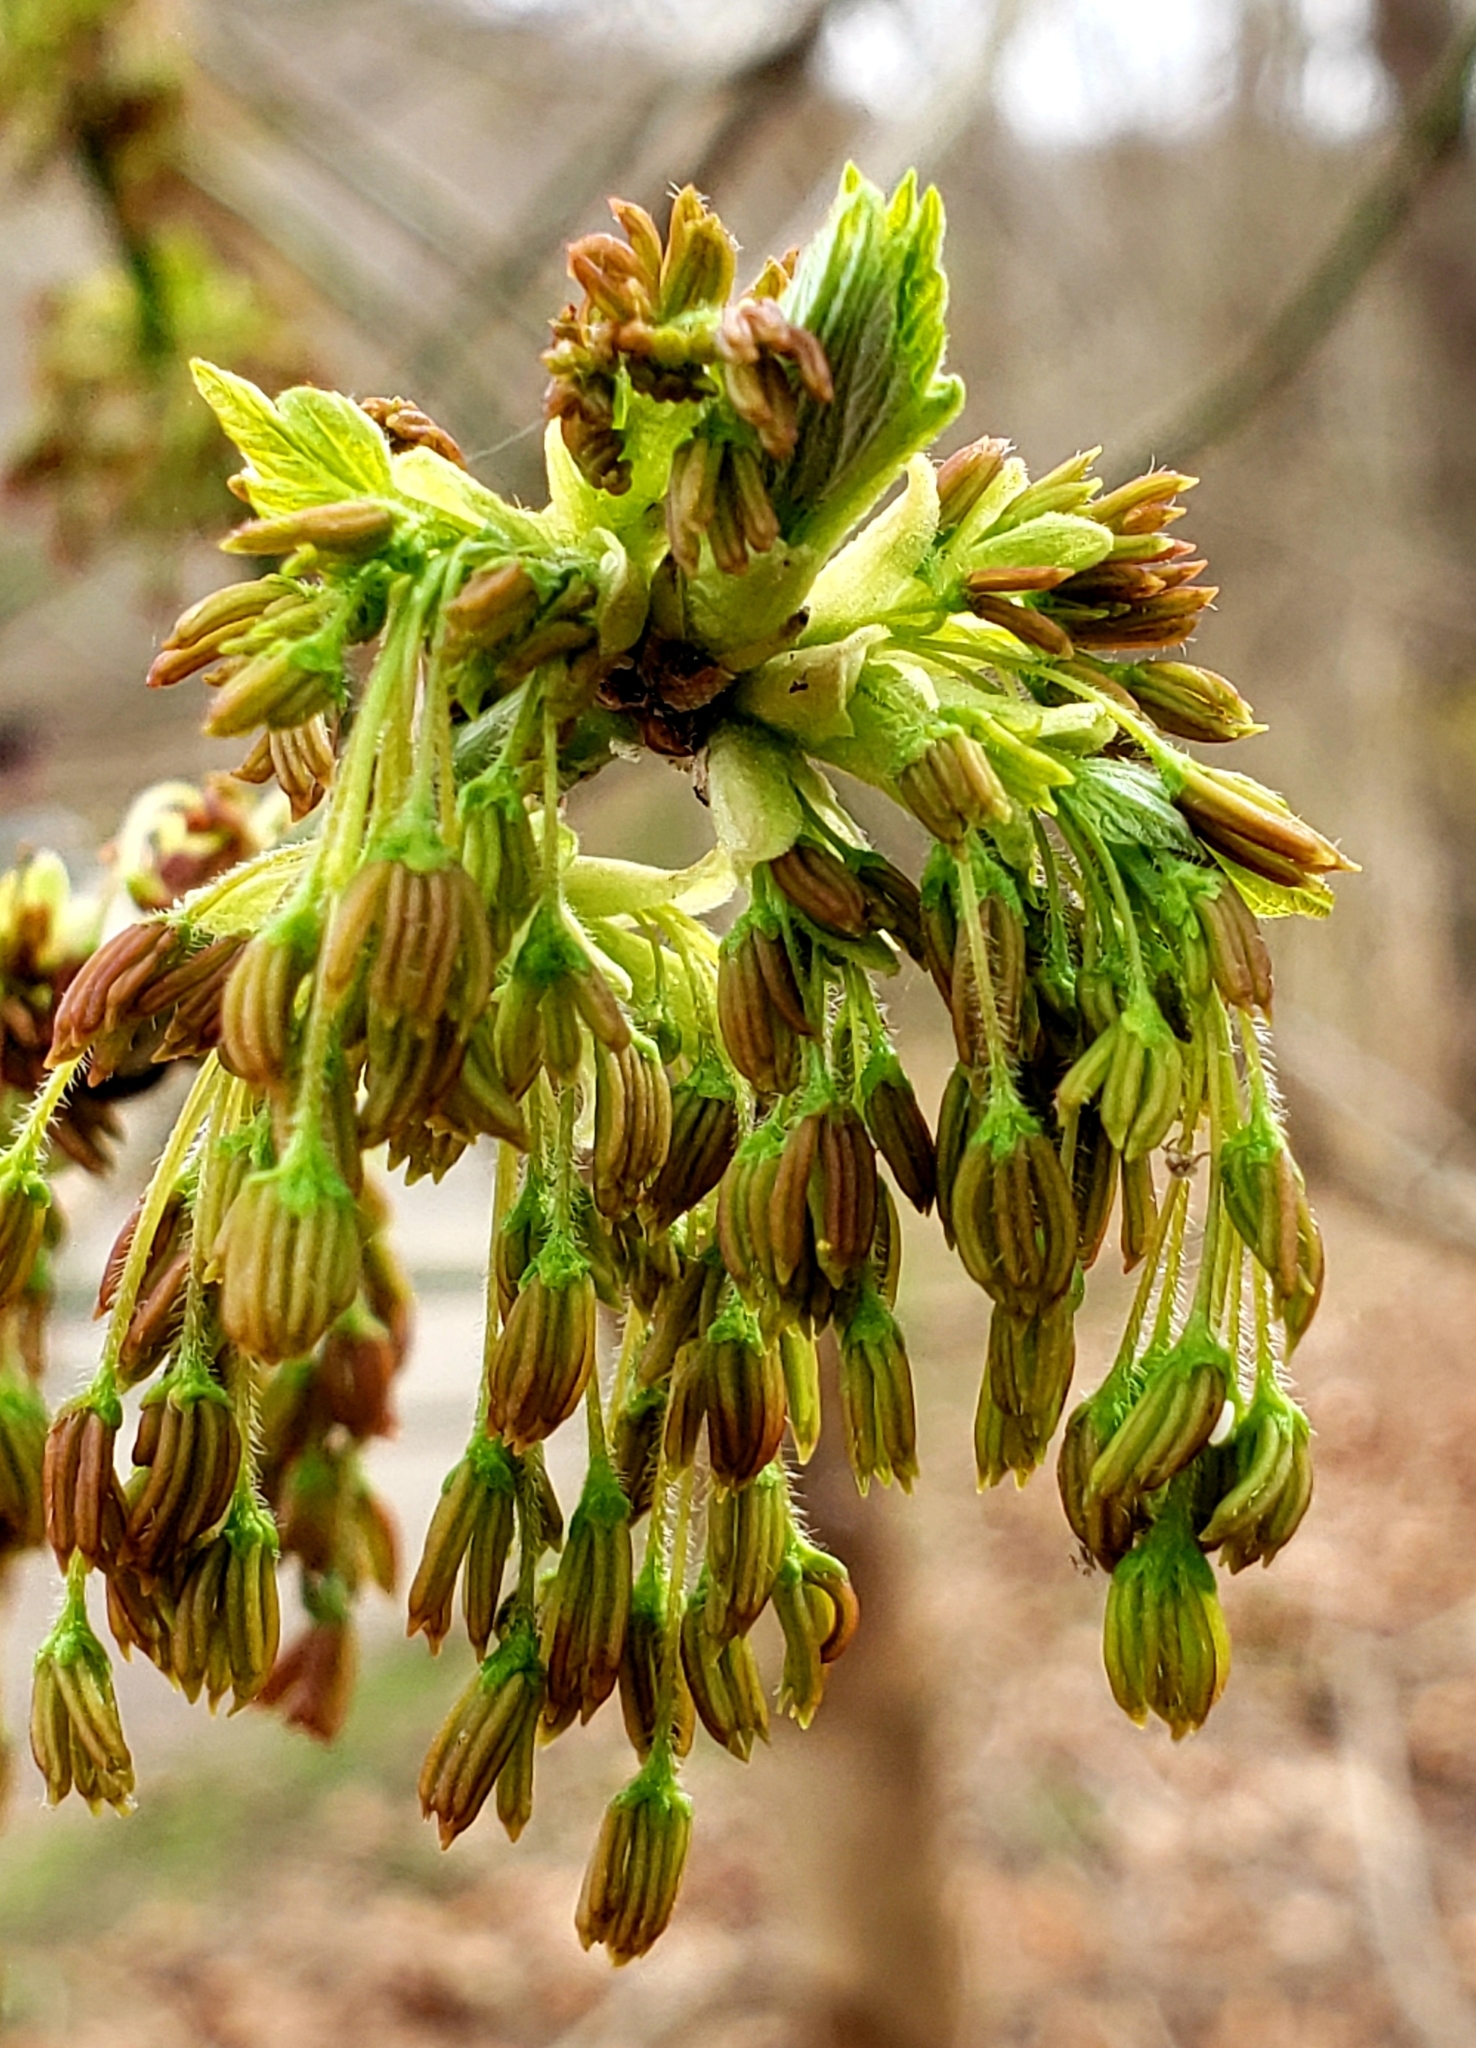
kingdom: Plantae
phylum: Tracheophyta
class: Magnoliopsida
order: Sapindales
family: Sapindaceae
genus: Acer
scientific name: Acer negundo
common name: Ashleaf maple
